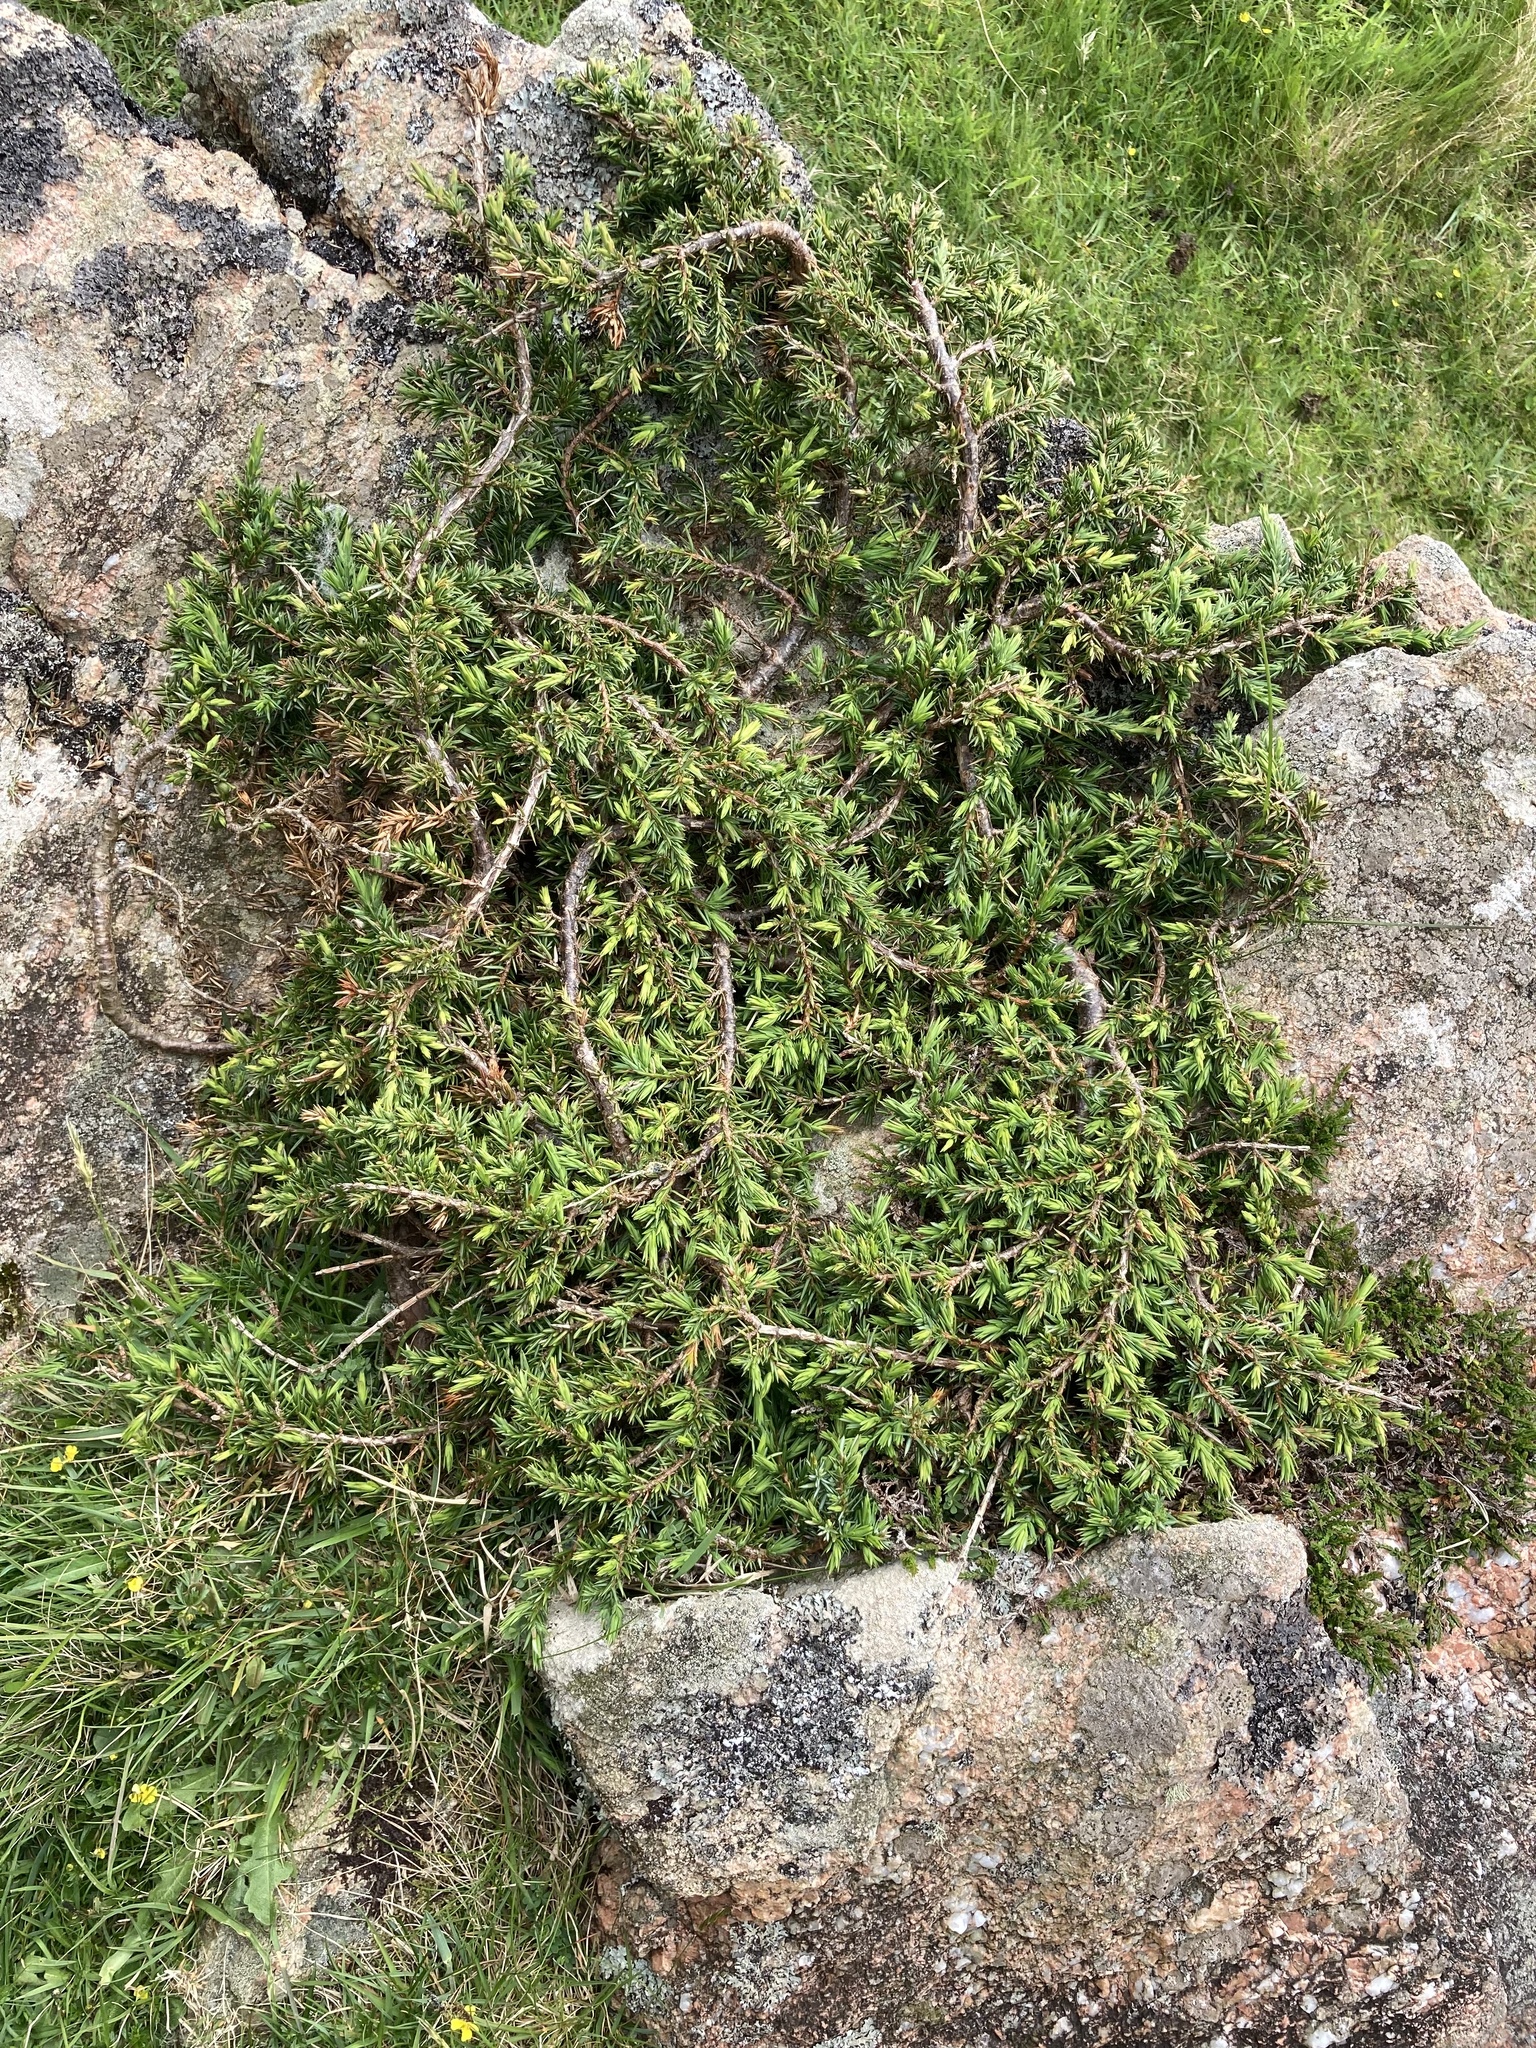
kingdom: Plantae
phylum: Tracheophyta
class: Pinopsida
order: Pinales
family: Cupressaceae
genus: Juniperus
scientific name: Juniperus communis
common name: Common juniper
